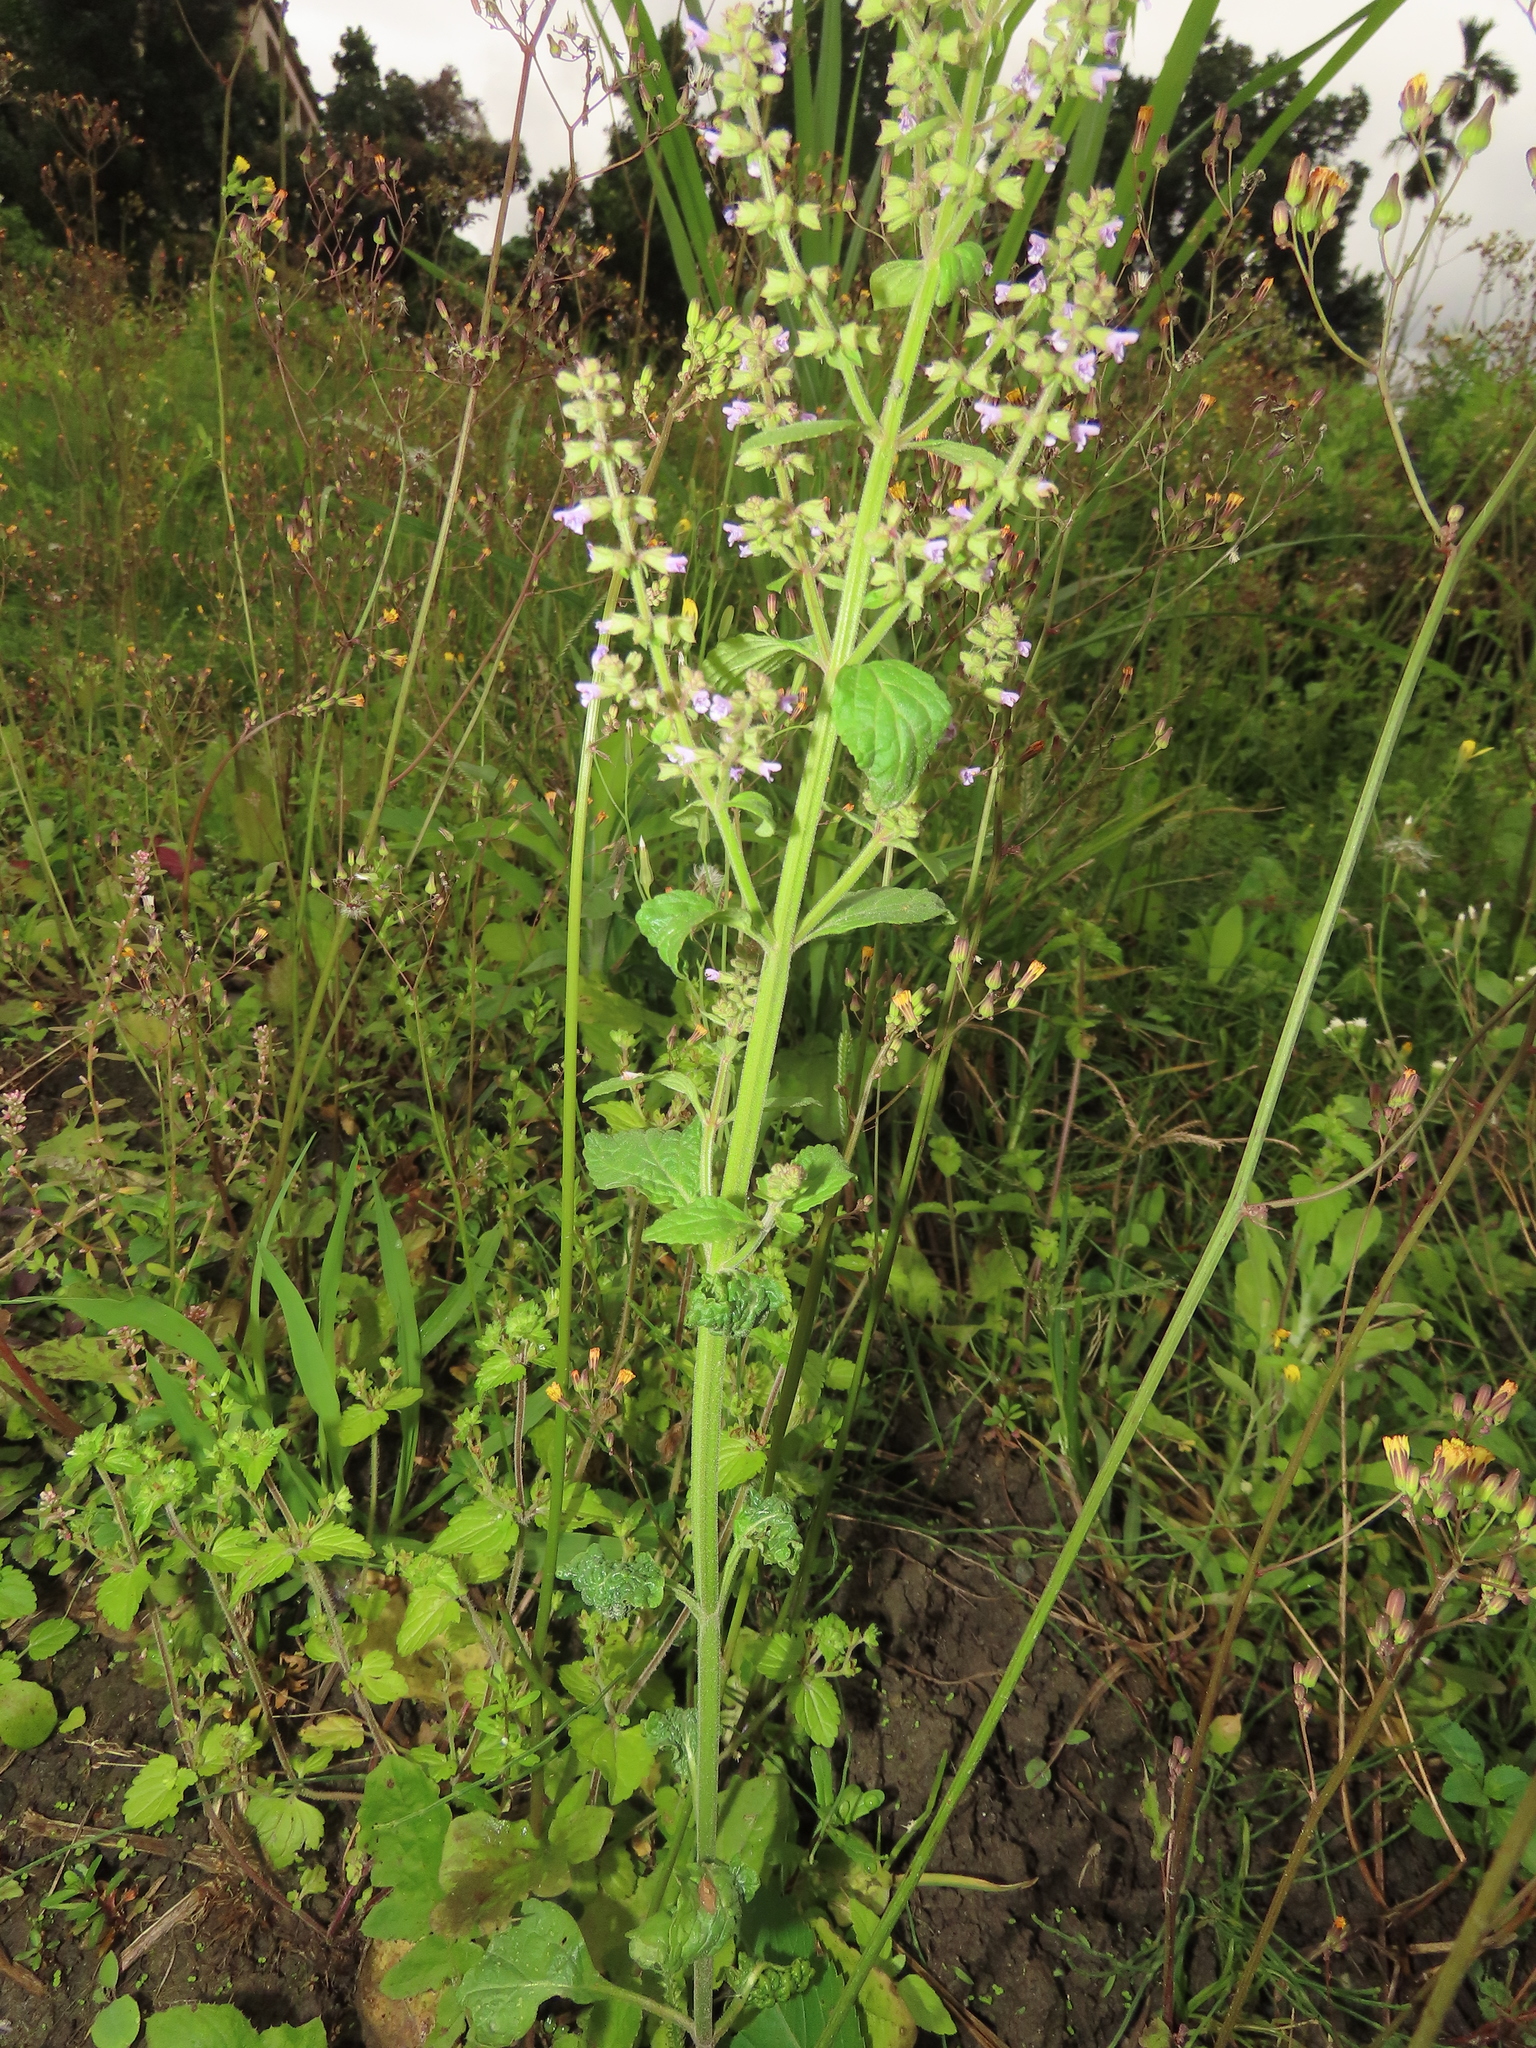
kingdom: Plantae
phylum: Tracheophyta
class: Magnoliopsida
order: Lamiales
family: Lamiaceae
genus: Salvia
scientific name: Salvia plebeia
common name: Australian sage
